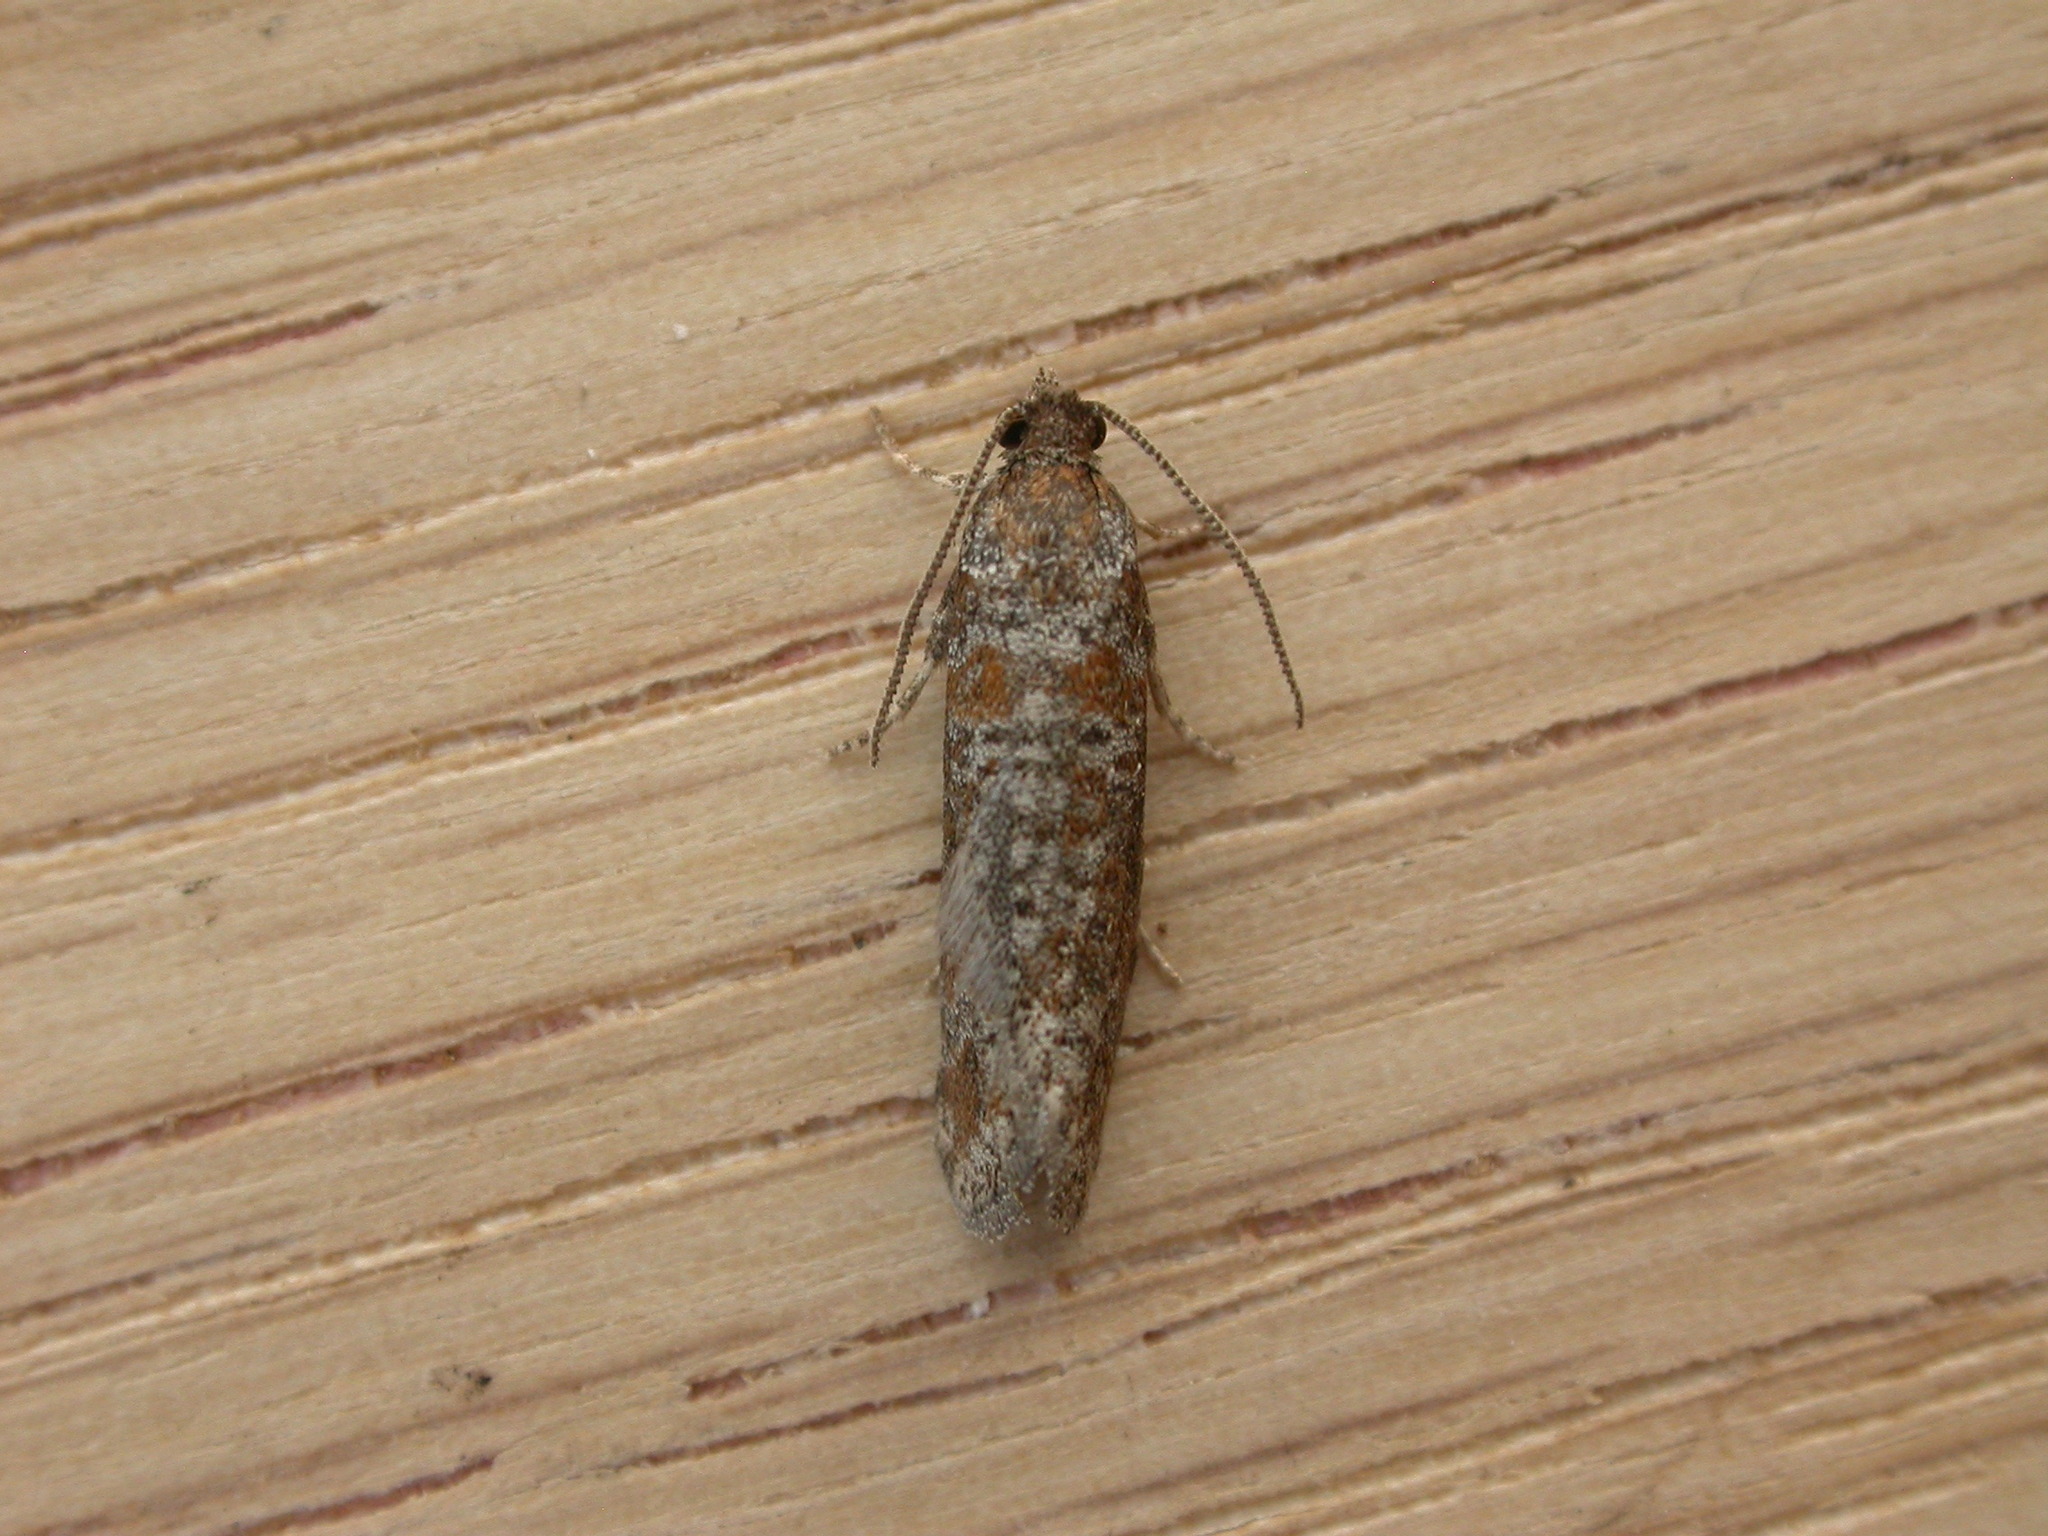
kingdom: Animalia
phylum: Arthropoda
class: Insecta
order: Lepidoptera
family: Tortricidae
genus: Rhyacionia
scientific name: Rhyacionia pinivorana
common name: Spotted shoot moth
